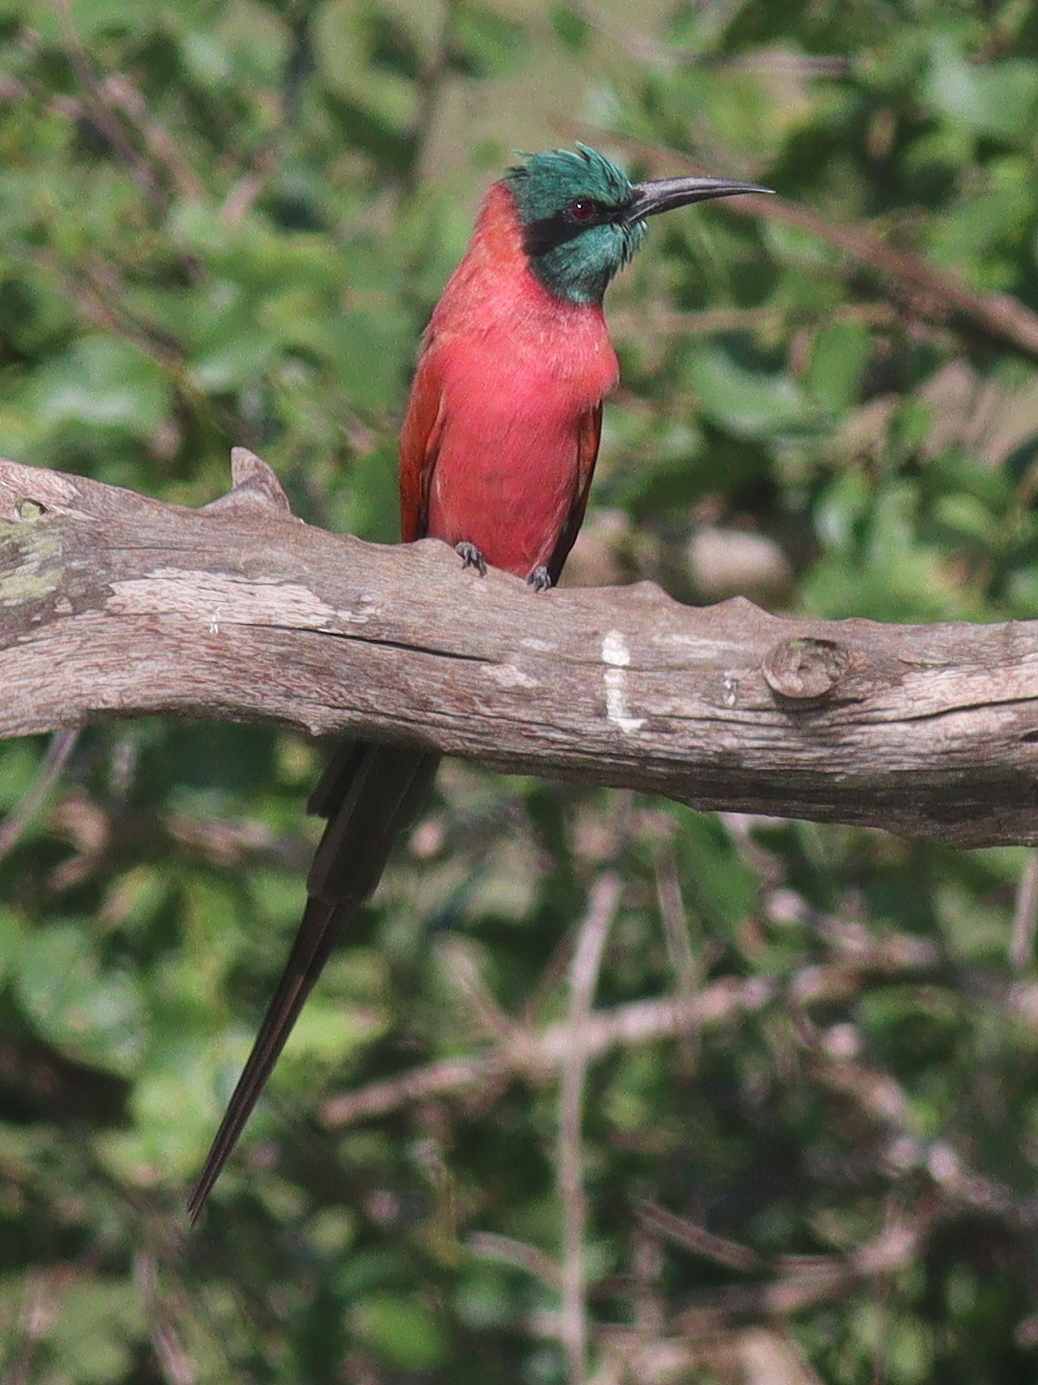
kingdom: Animalia
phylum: Chordata
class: Aves
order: Coraciiformes
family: Meropidae
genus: Merops
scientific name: Merops nubicus
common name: Northern carmine bee-eater
